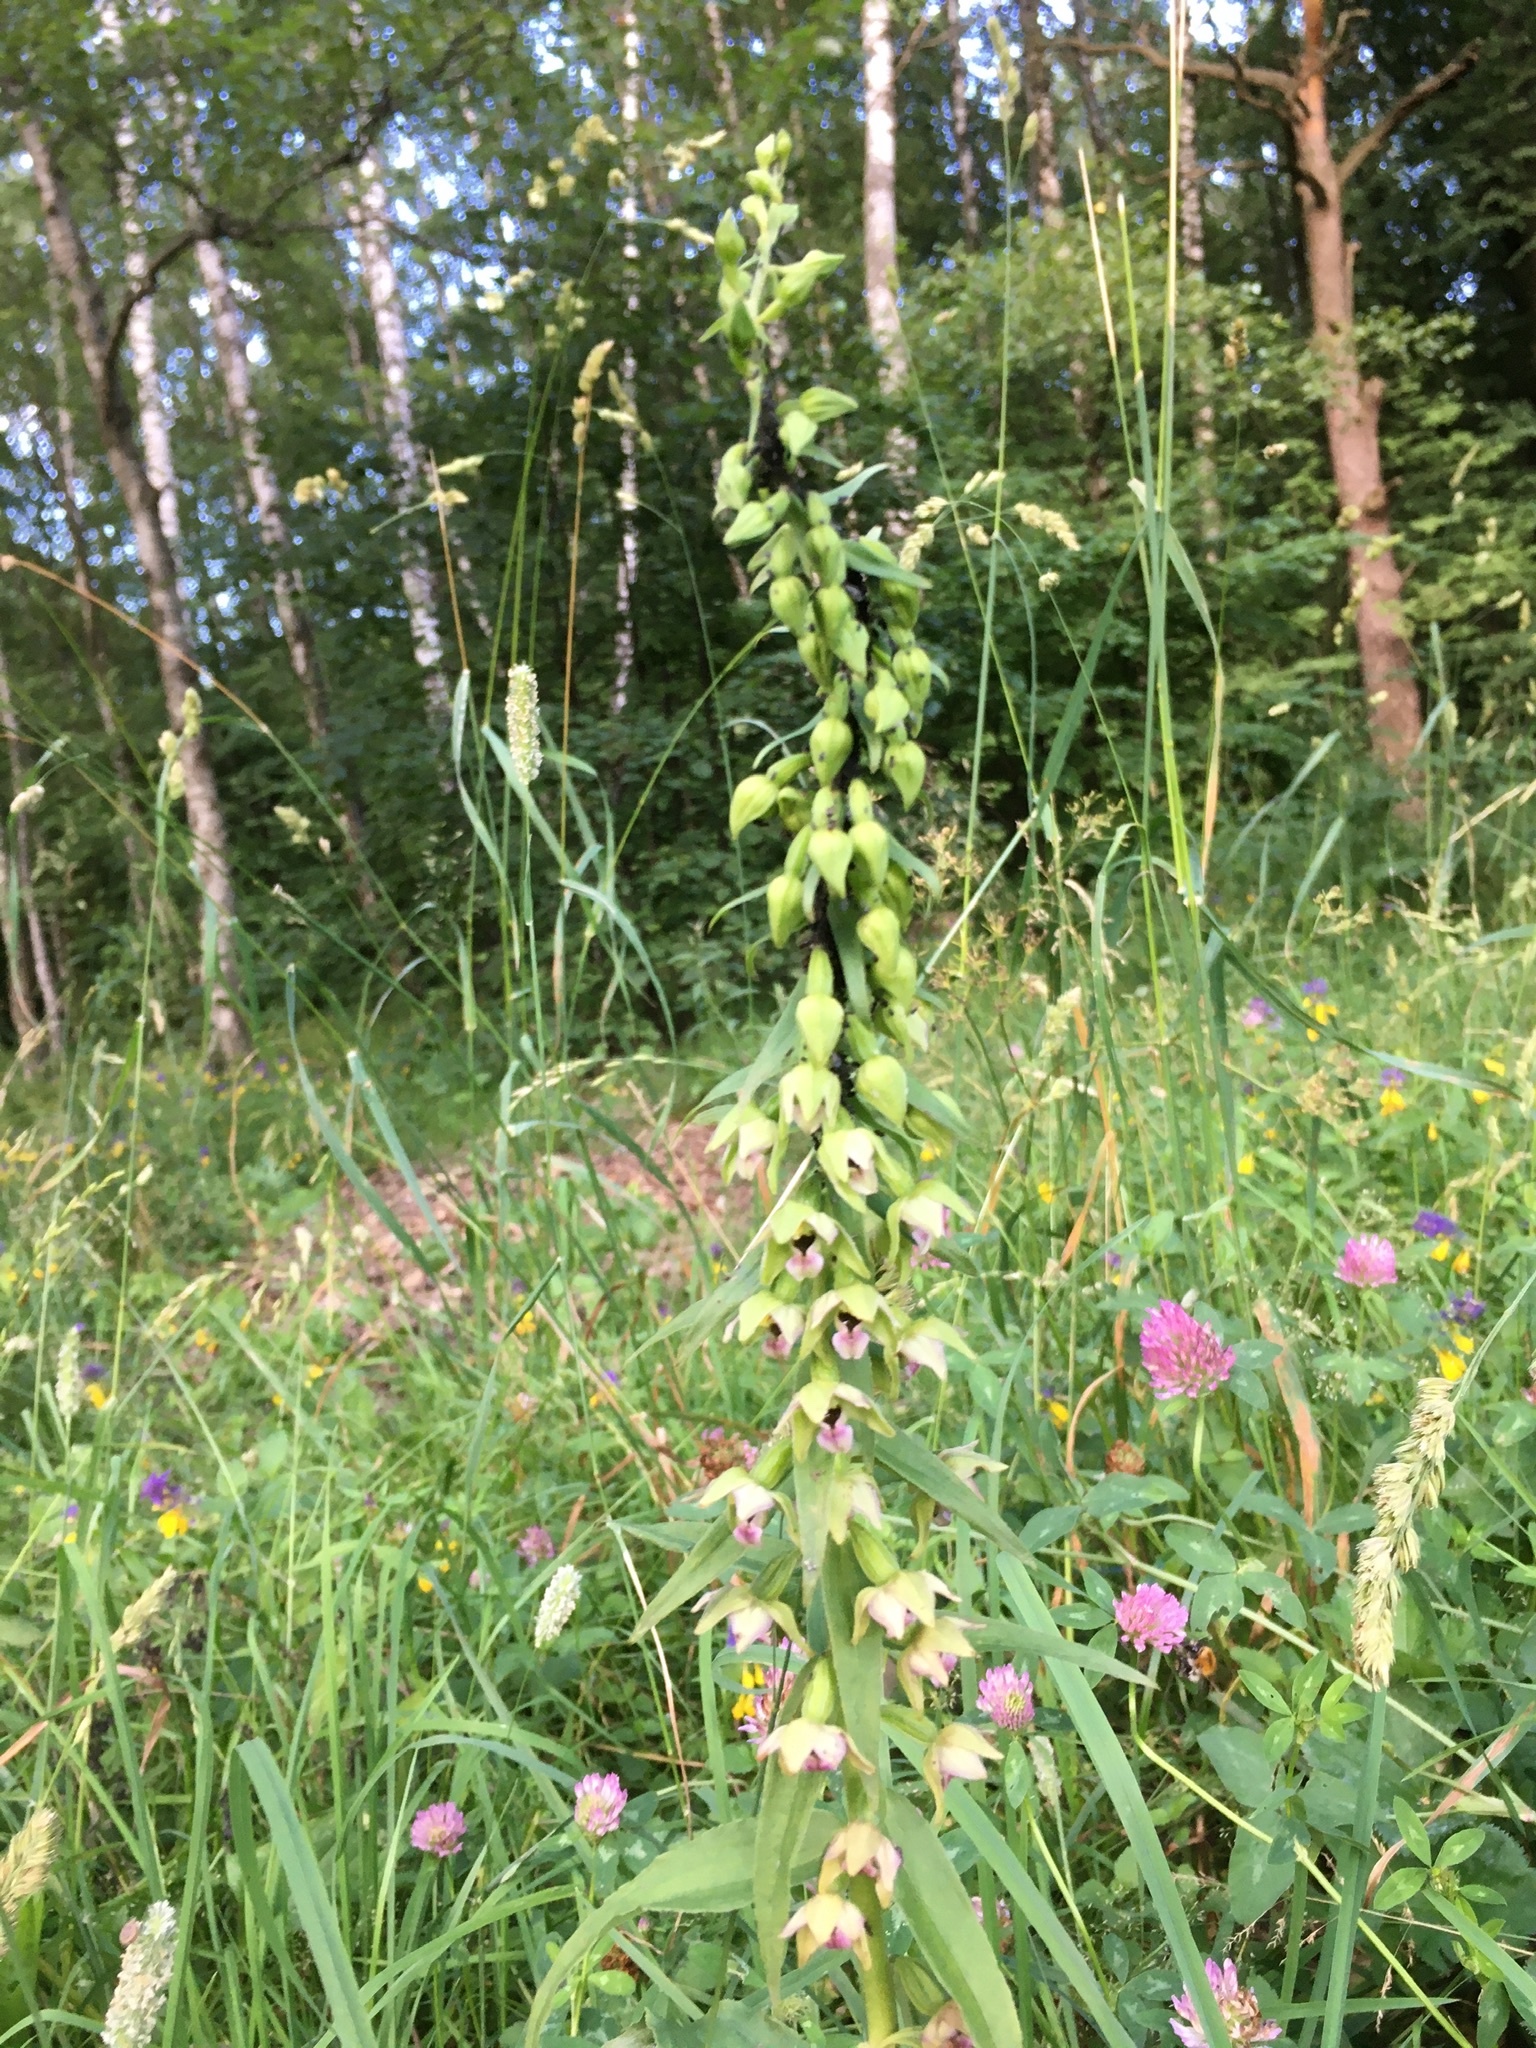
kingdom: Plantae
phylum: Tracheophyta
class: Liliopsida
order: Asparagales
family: Orchidaceae
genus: Epipactis
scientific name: Epipactis helleborine
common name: Broad-leaved helleborine
